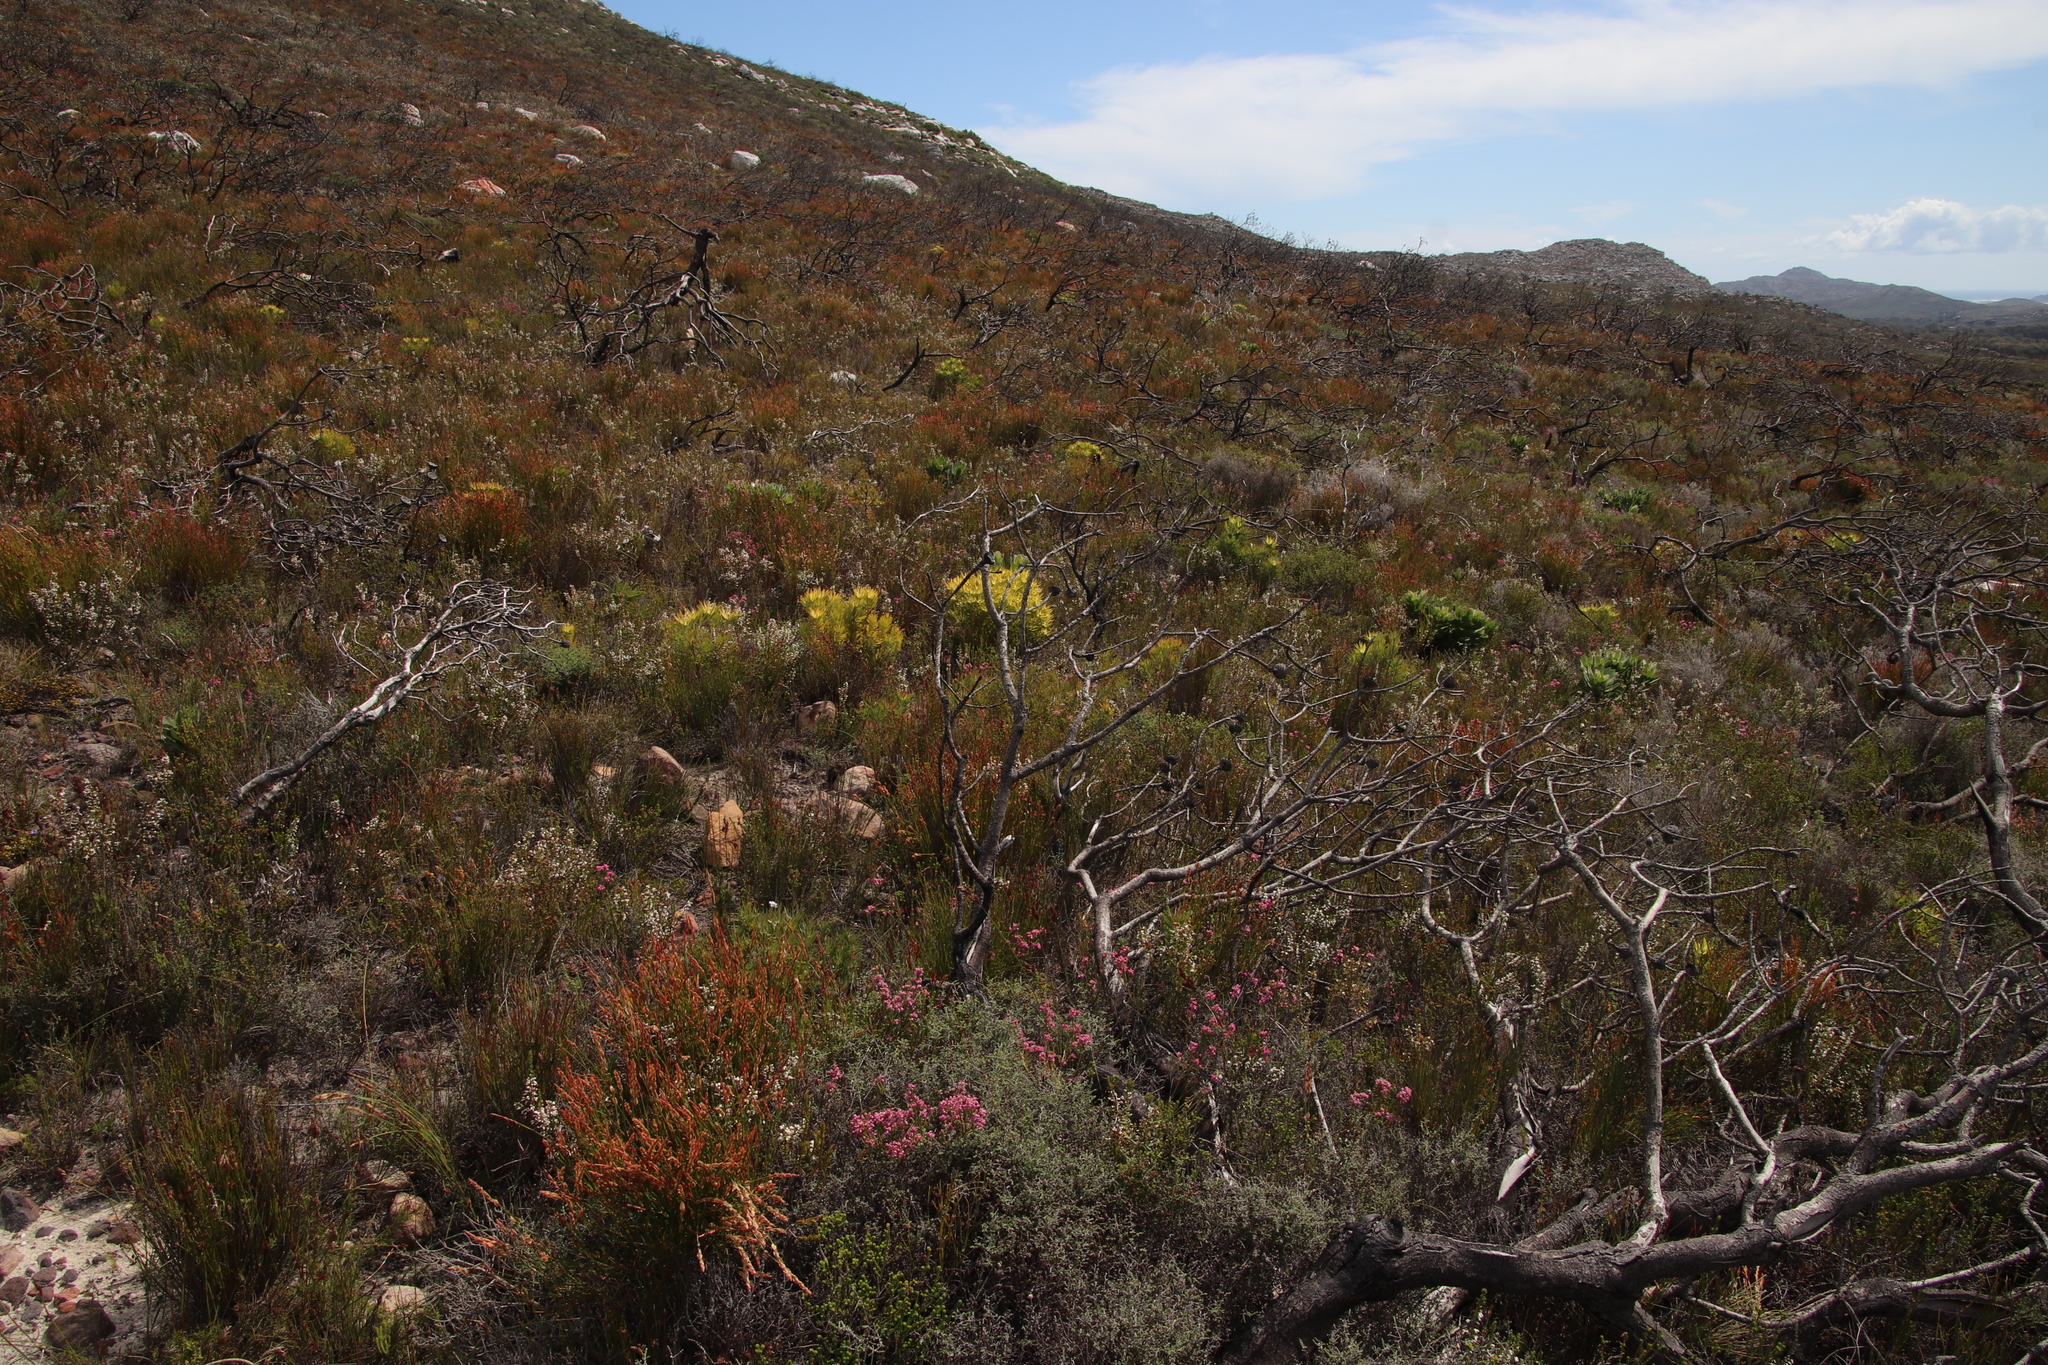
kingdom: Plantae
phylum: Tracheophyta
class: Magnoliopsida
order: Ericales
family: Ericaceae
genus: Erica
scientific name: Erica corifolia
